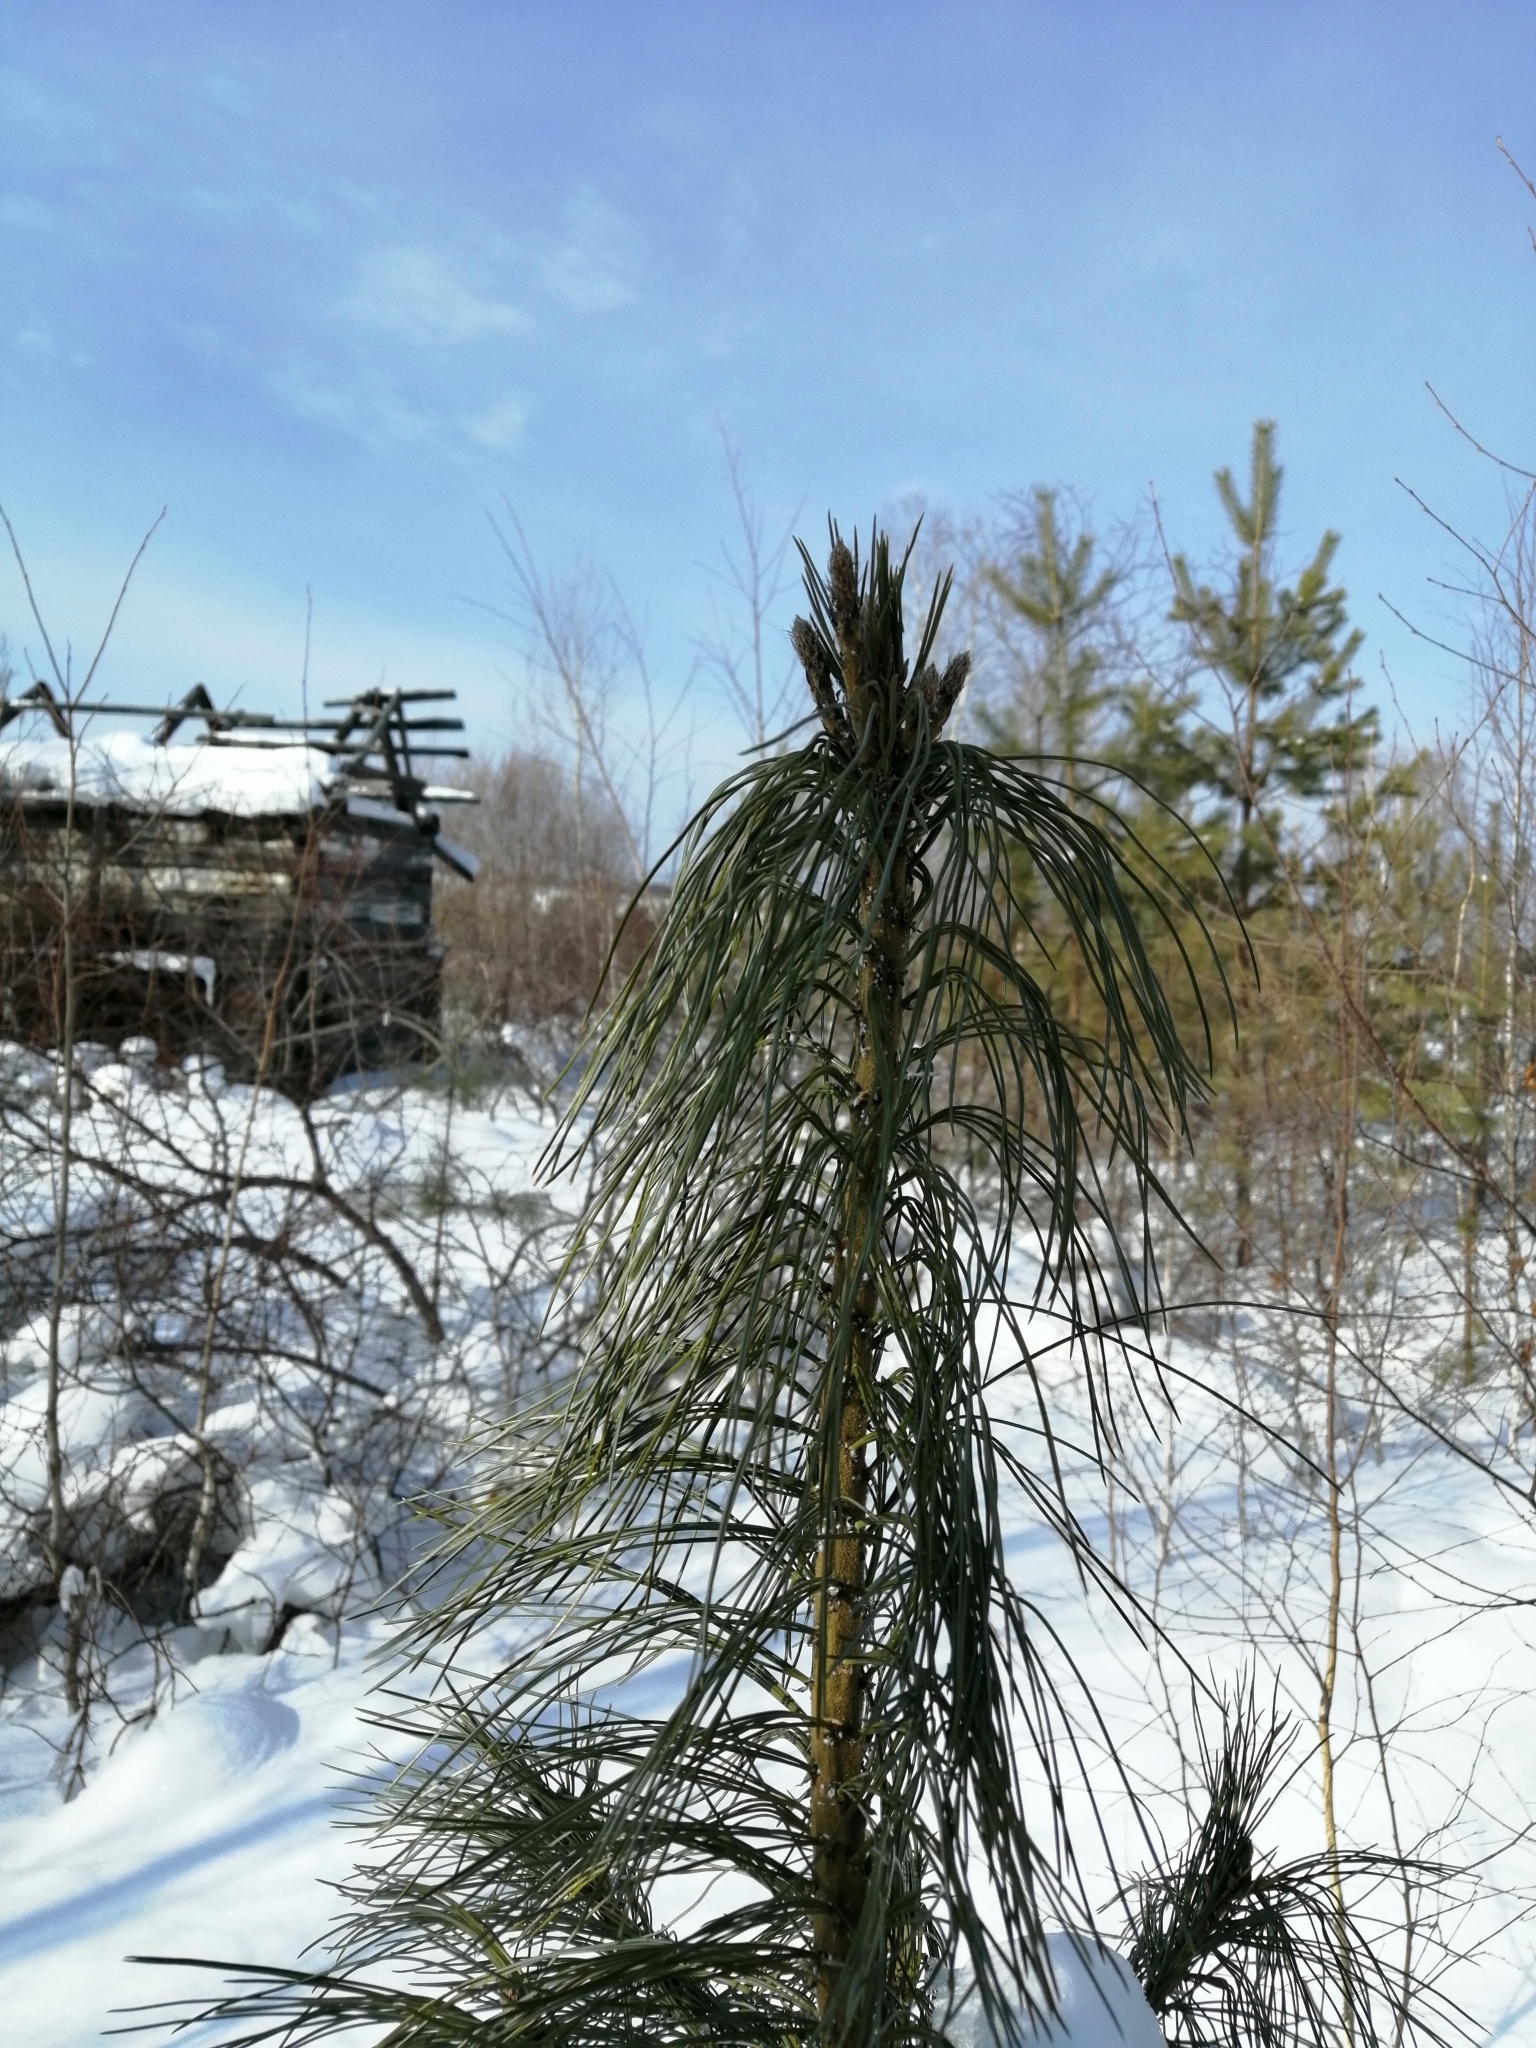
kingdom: Plantae
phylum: Tracheophyta
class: Pinopsida
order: Pinales
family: Pinaceae
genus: Pinus
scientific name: Pinus sibirica
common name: Siberian pine
